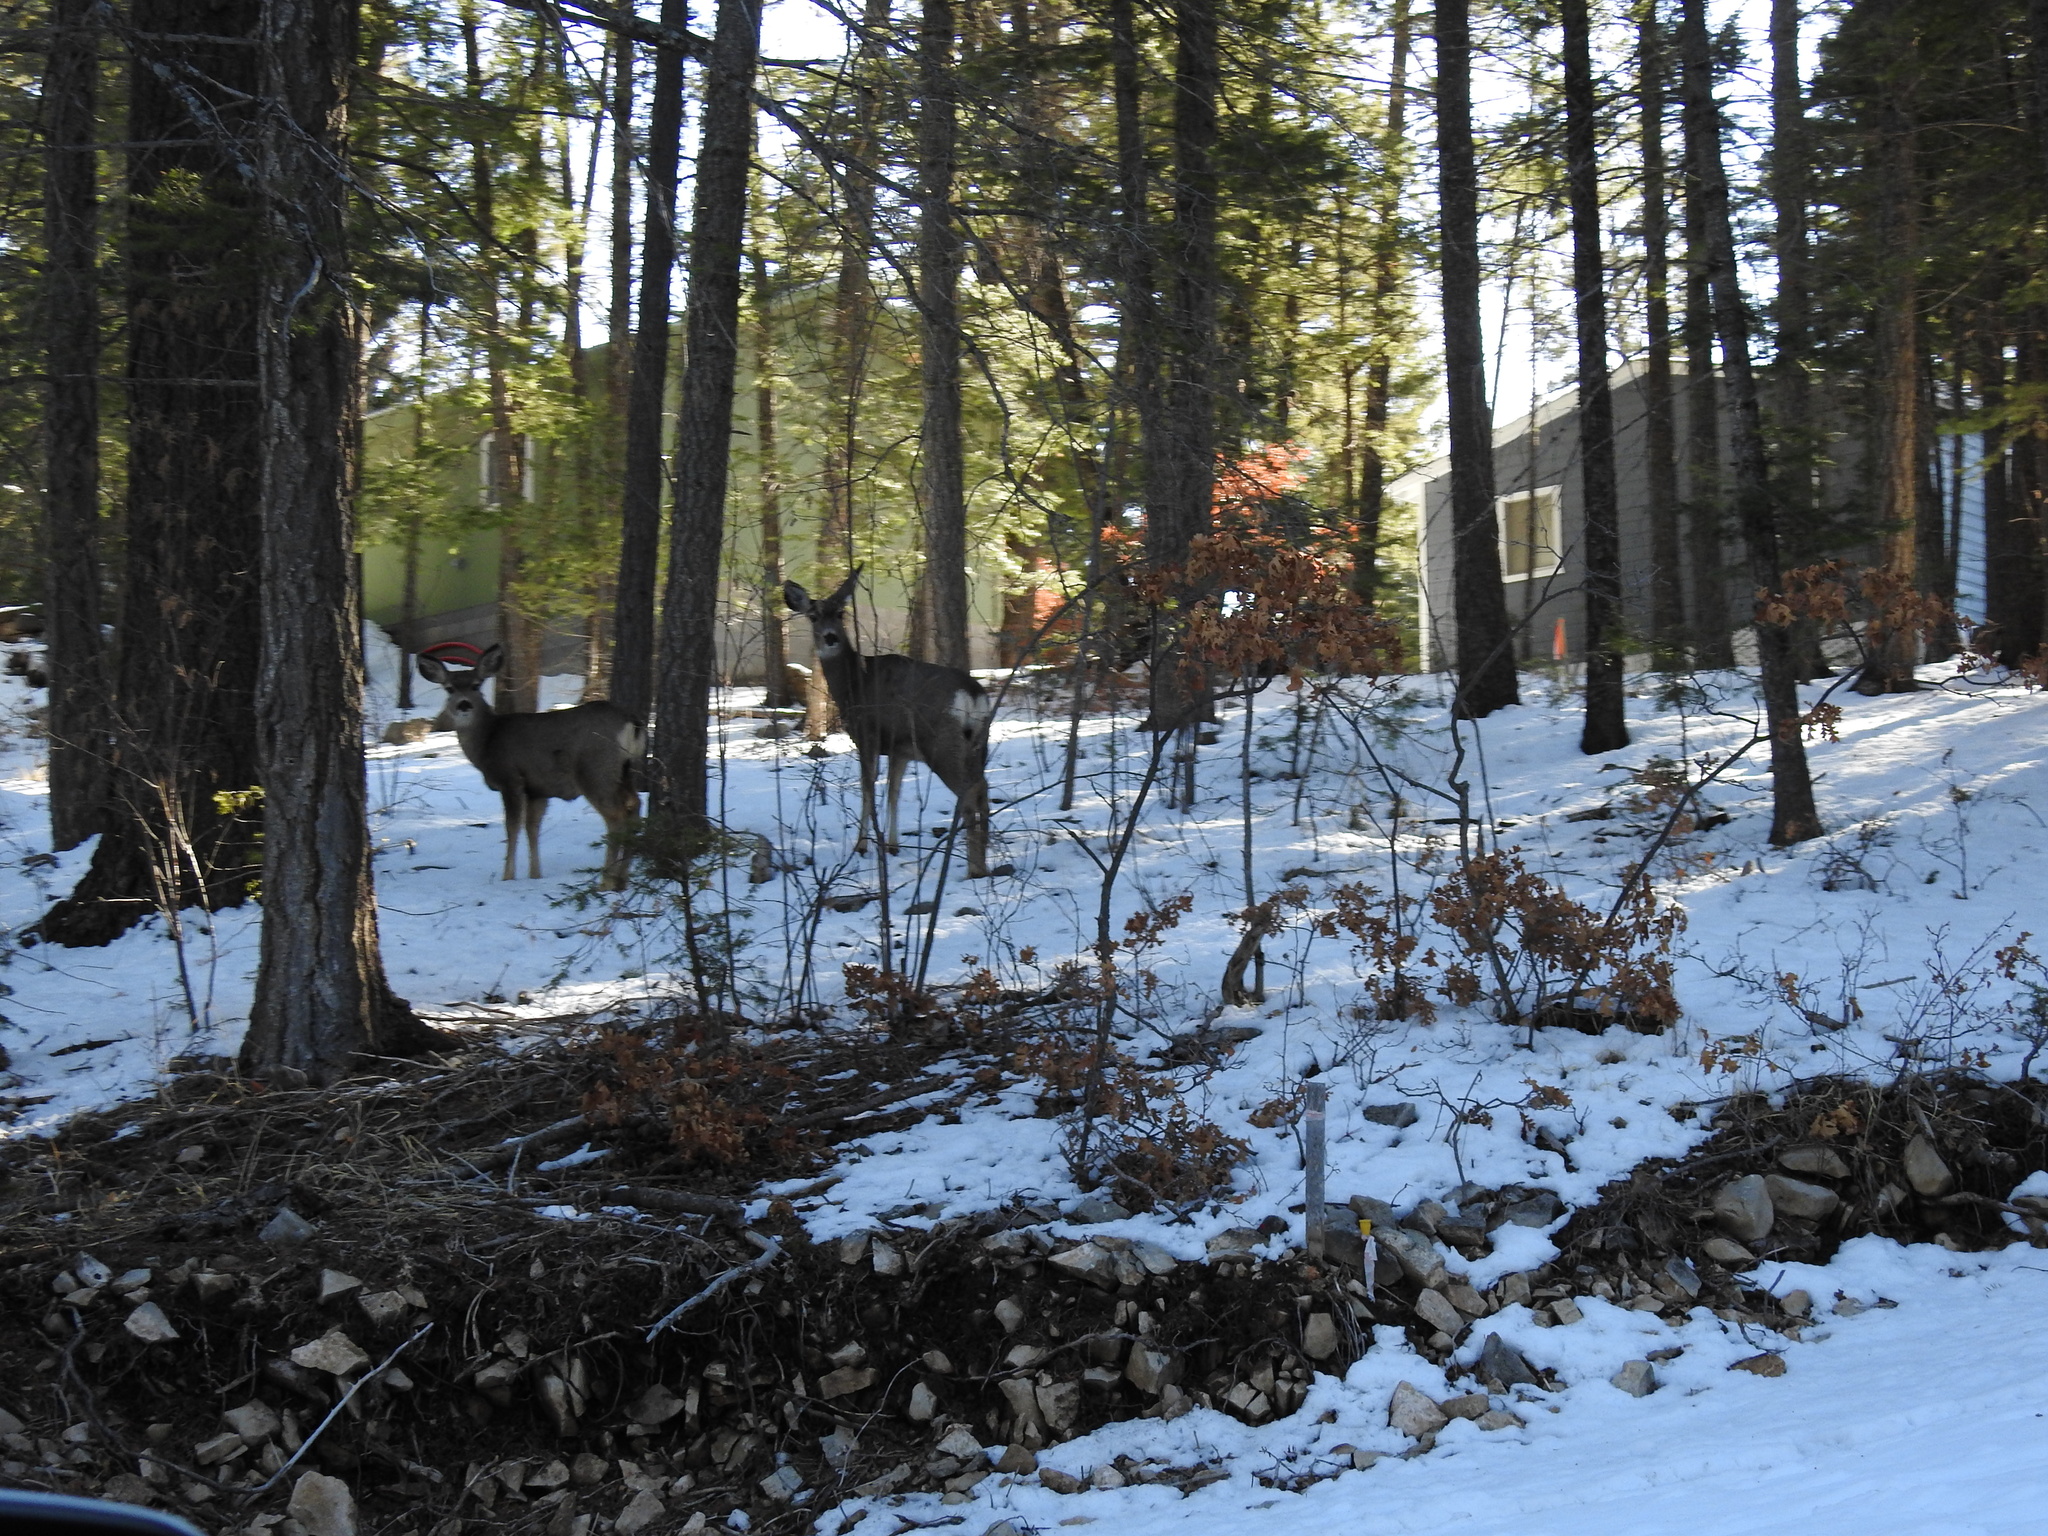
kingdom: Animalia
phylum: Chordata
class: Mammalia
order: Artiodactyla
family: Cervidae
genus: Odocoileus
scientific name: Odocoileus hemionus
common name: Mule deer
